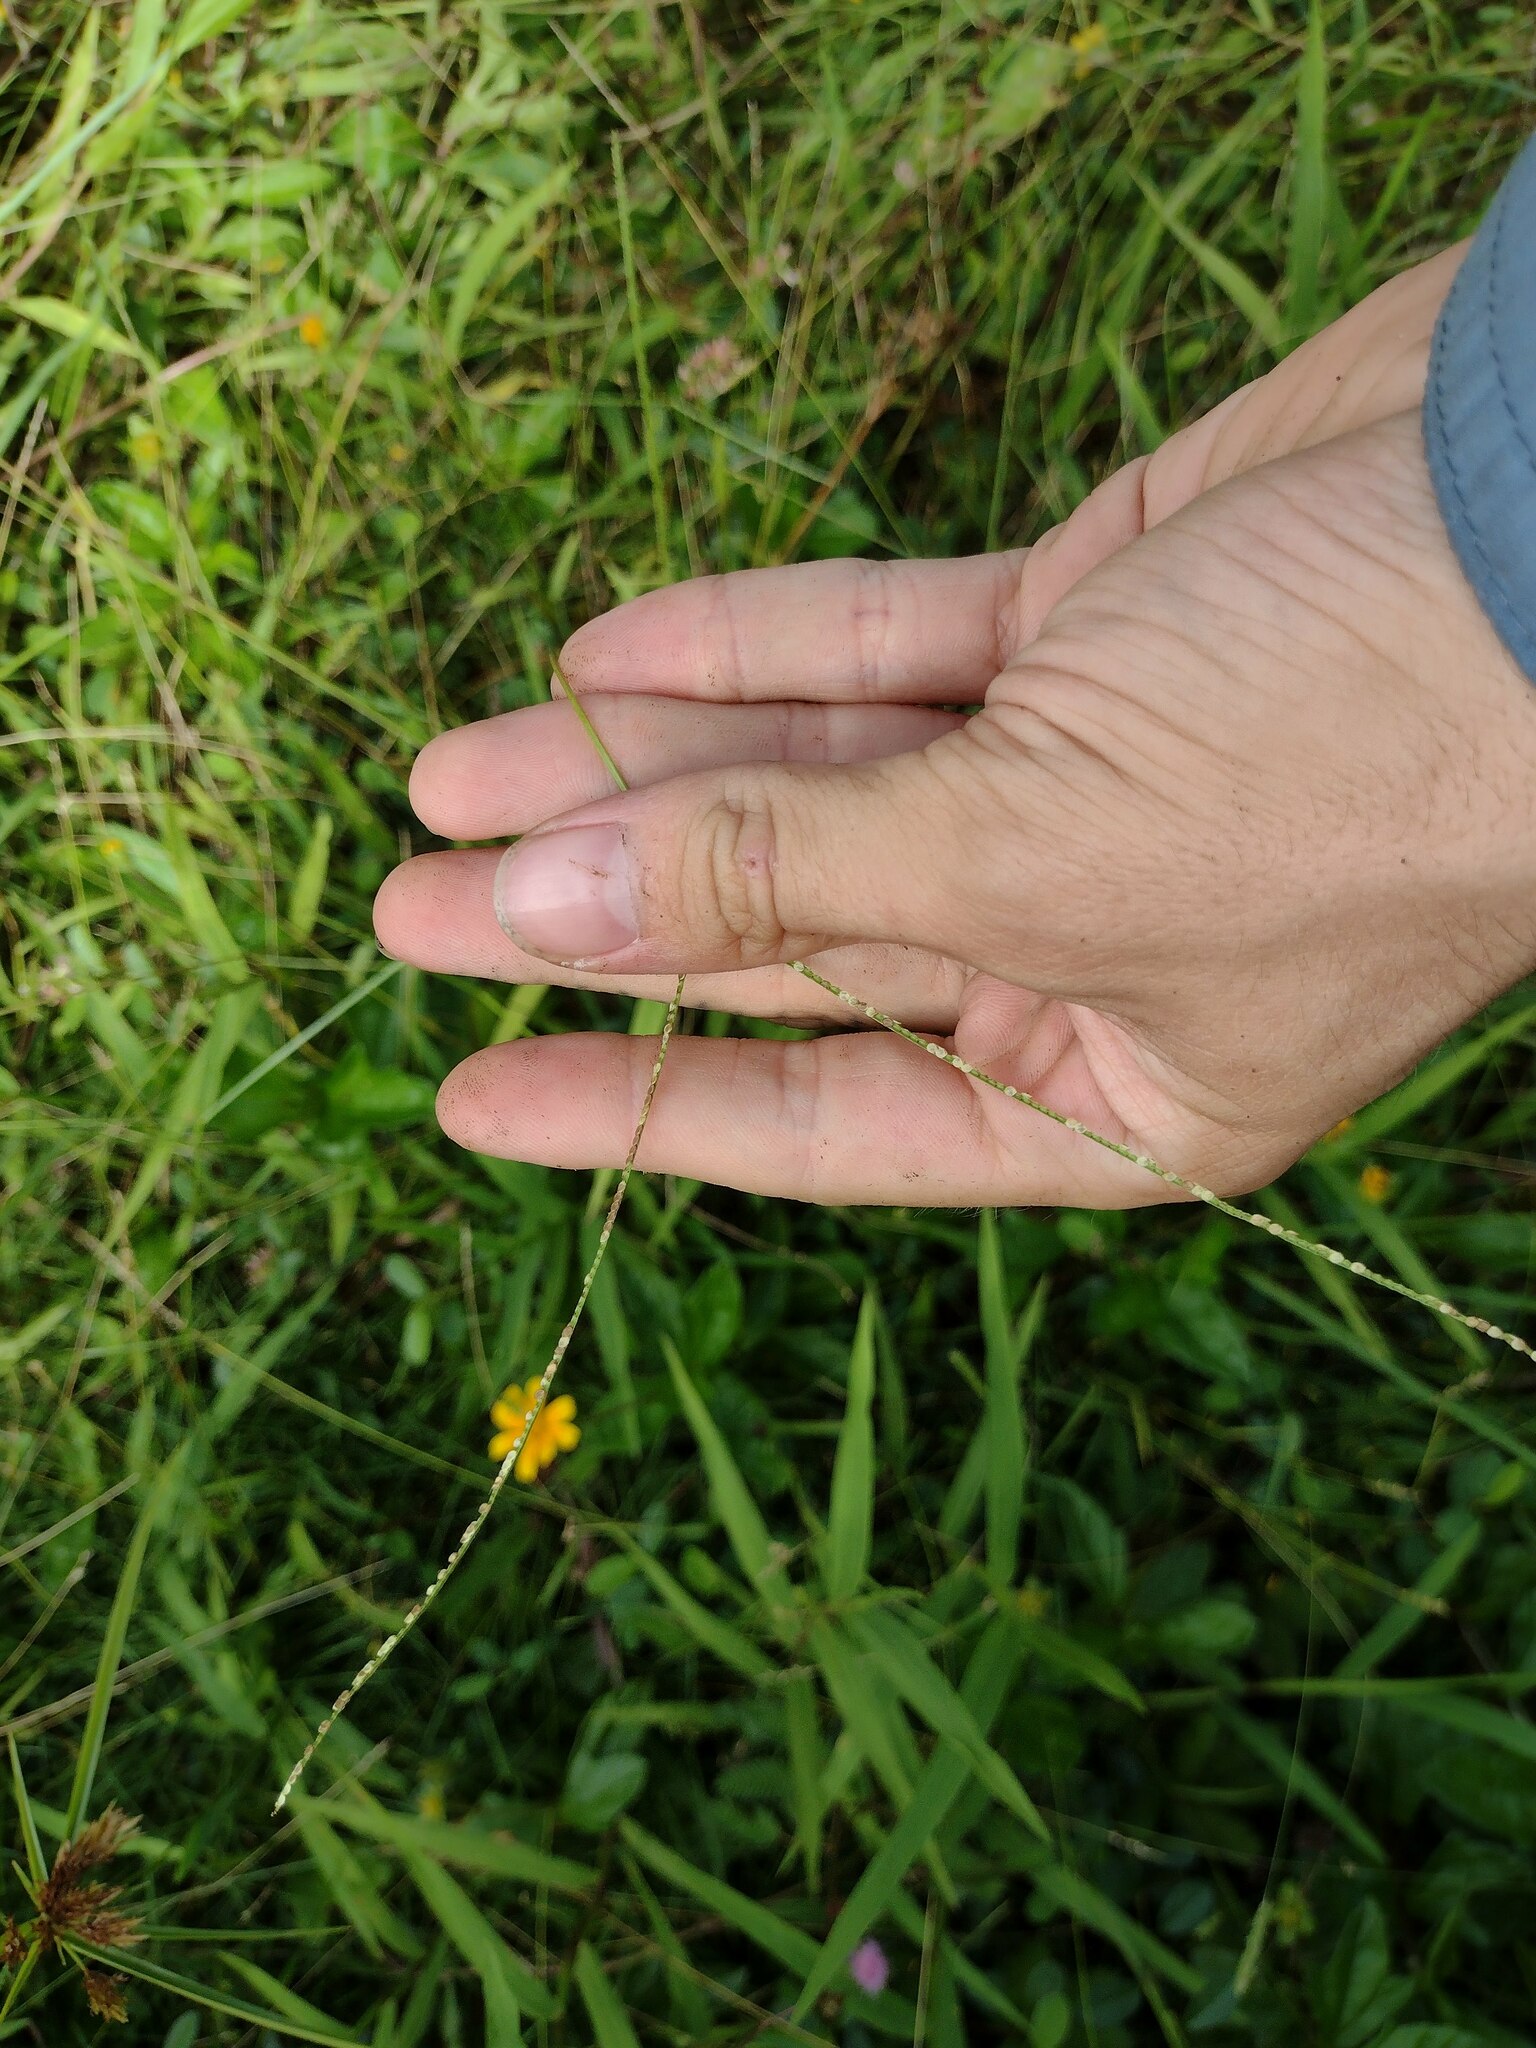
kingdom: Plantae
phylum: Tracheophyta
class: Liliopsida
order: Poales
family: Poaceae
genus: Paspalum
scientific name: Paspalum conjugatum
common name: Hilograss
